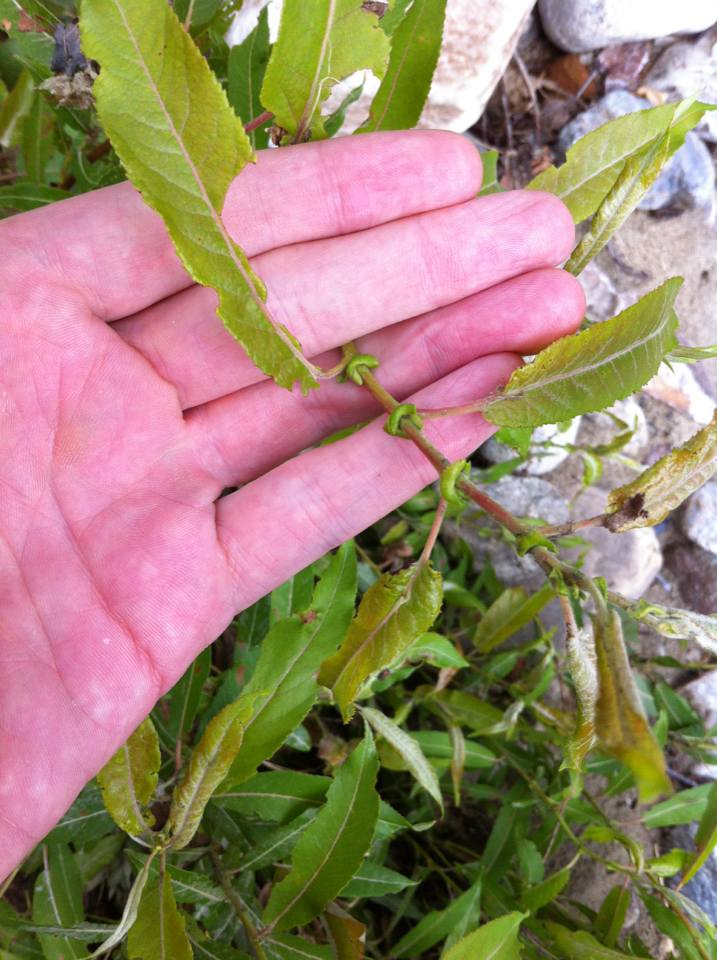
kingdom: Plantae
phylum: Tracheophyta
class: Magnoliopsida
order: Malpighiales
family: Salicaceae
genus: Salix
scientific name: Salix eriocephala
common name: Heart-leaved willow
